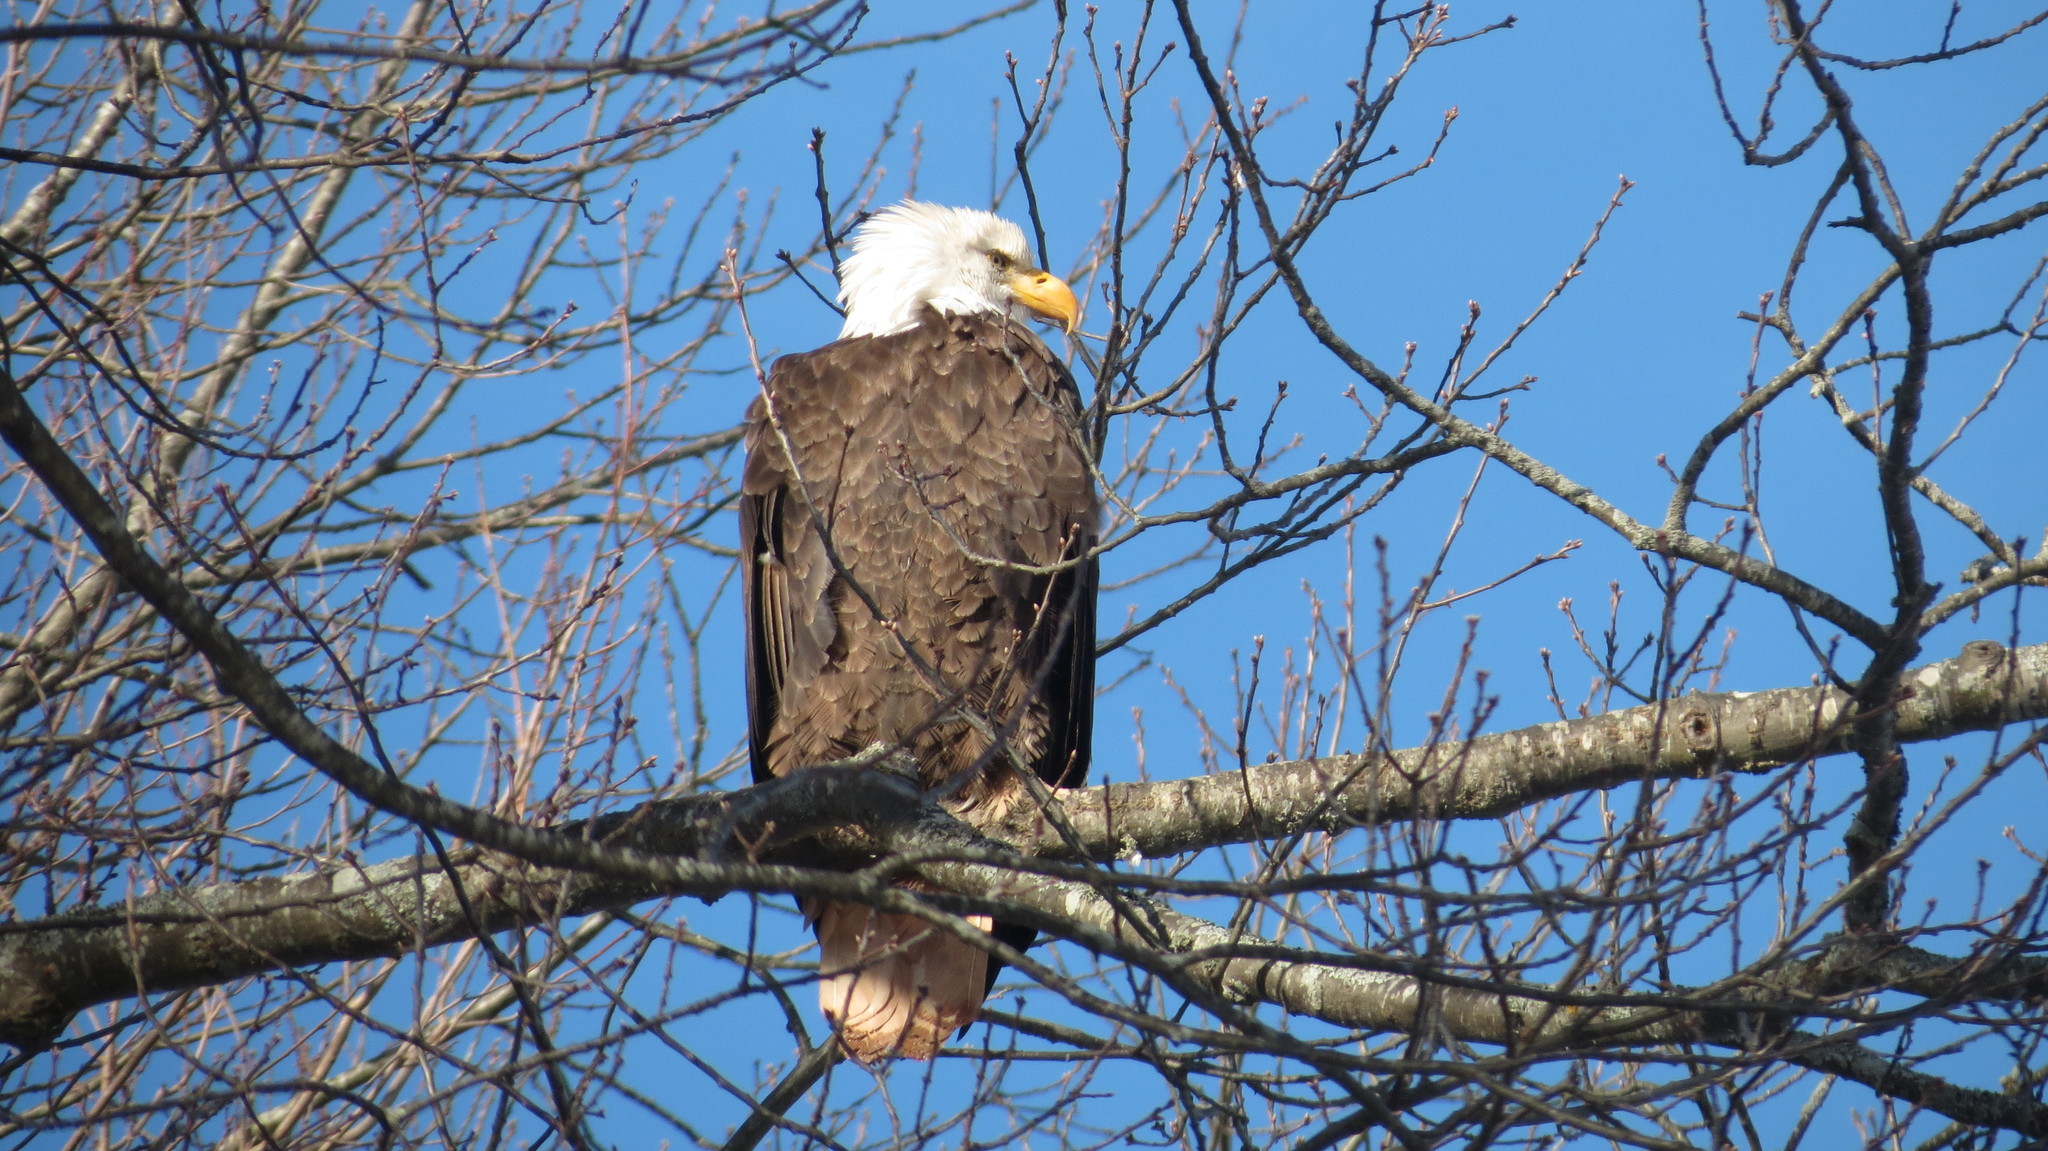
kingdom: Animalia
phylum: Chordata
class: Aves
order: Accipitriformes
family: Accipitridae
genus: Haliaeetus
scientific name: Haliaeetus leucocephalus
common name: Bald eagle
